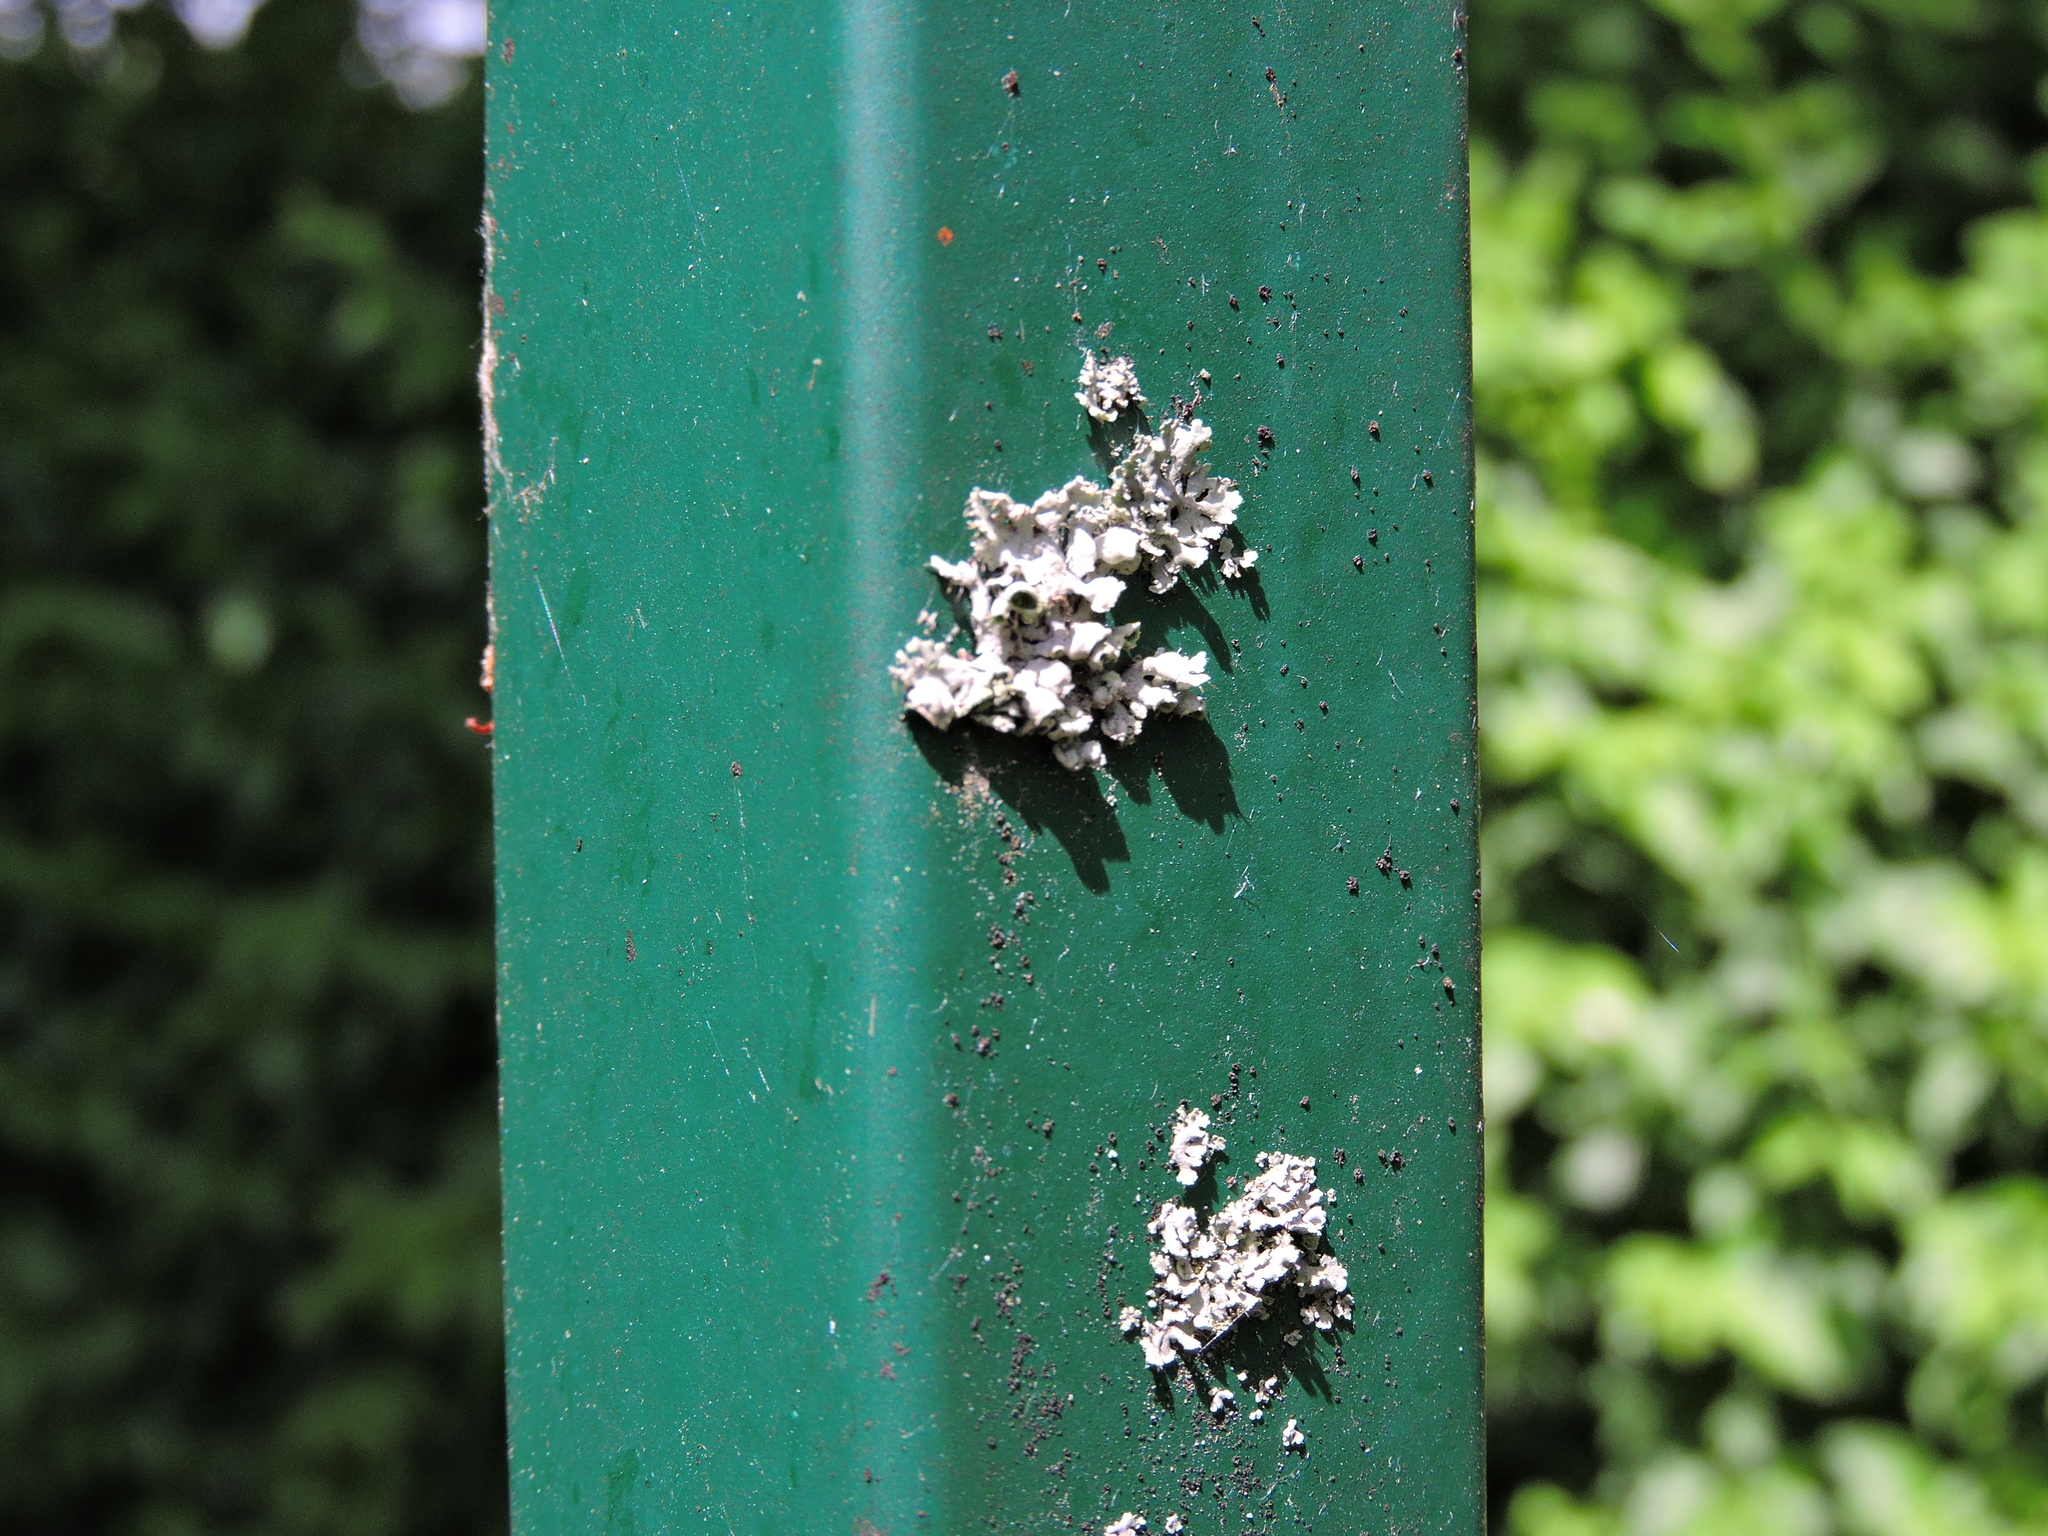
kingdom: Fungi
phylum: Ascomycota
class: Lecanoromycetes
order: Caliciales
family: Physciaceae
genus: Physcia
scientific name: Physcia adscendens
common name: Hooded rosette lichen
